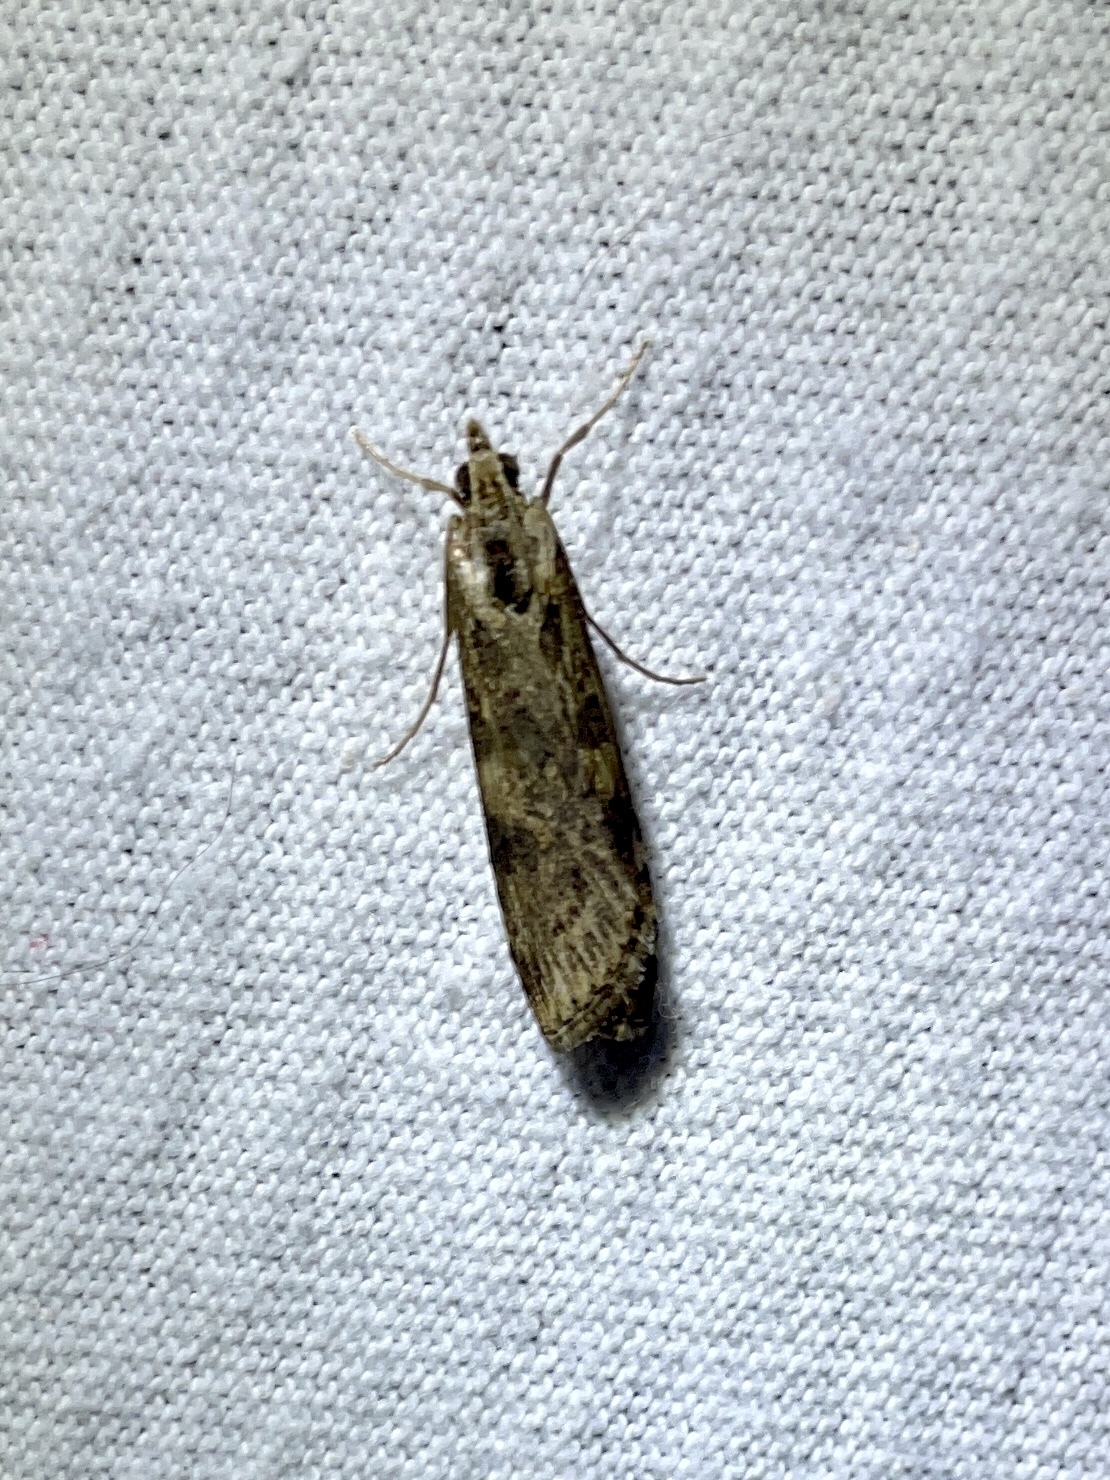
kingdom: Animalia
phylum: Arthropoda
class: Insecta
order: Lepidoptera
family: Crambidae
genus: Nomophila
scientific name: Nomophila nearctica
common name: American rush veneer
